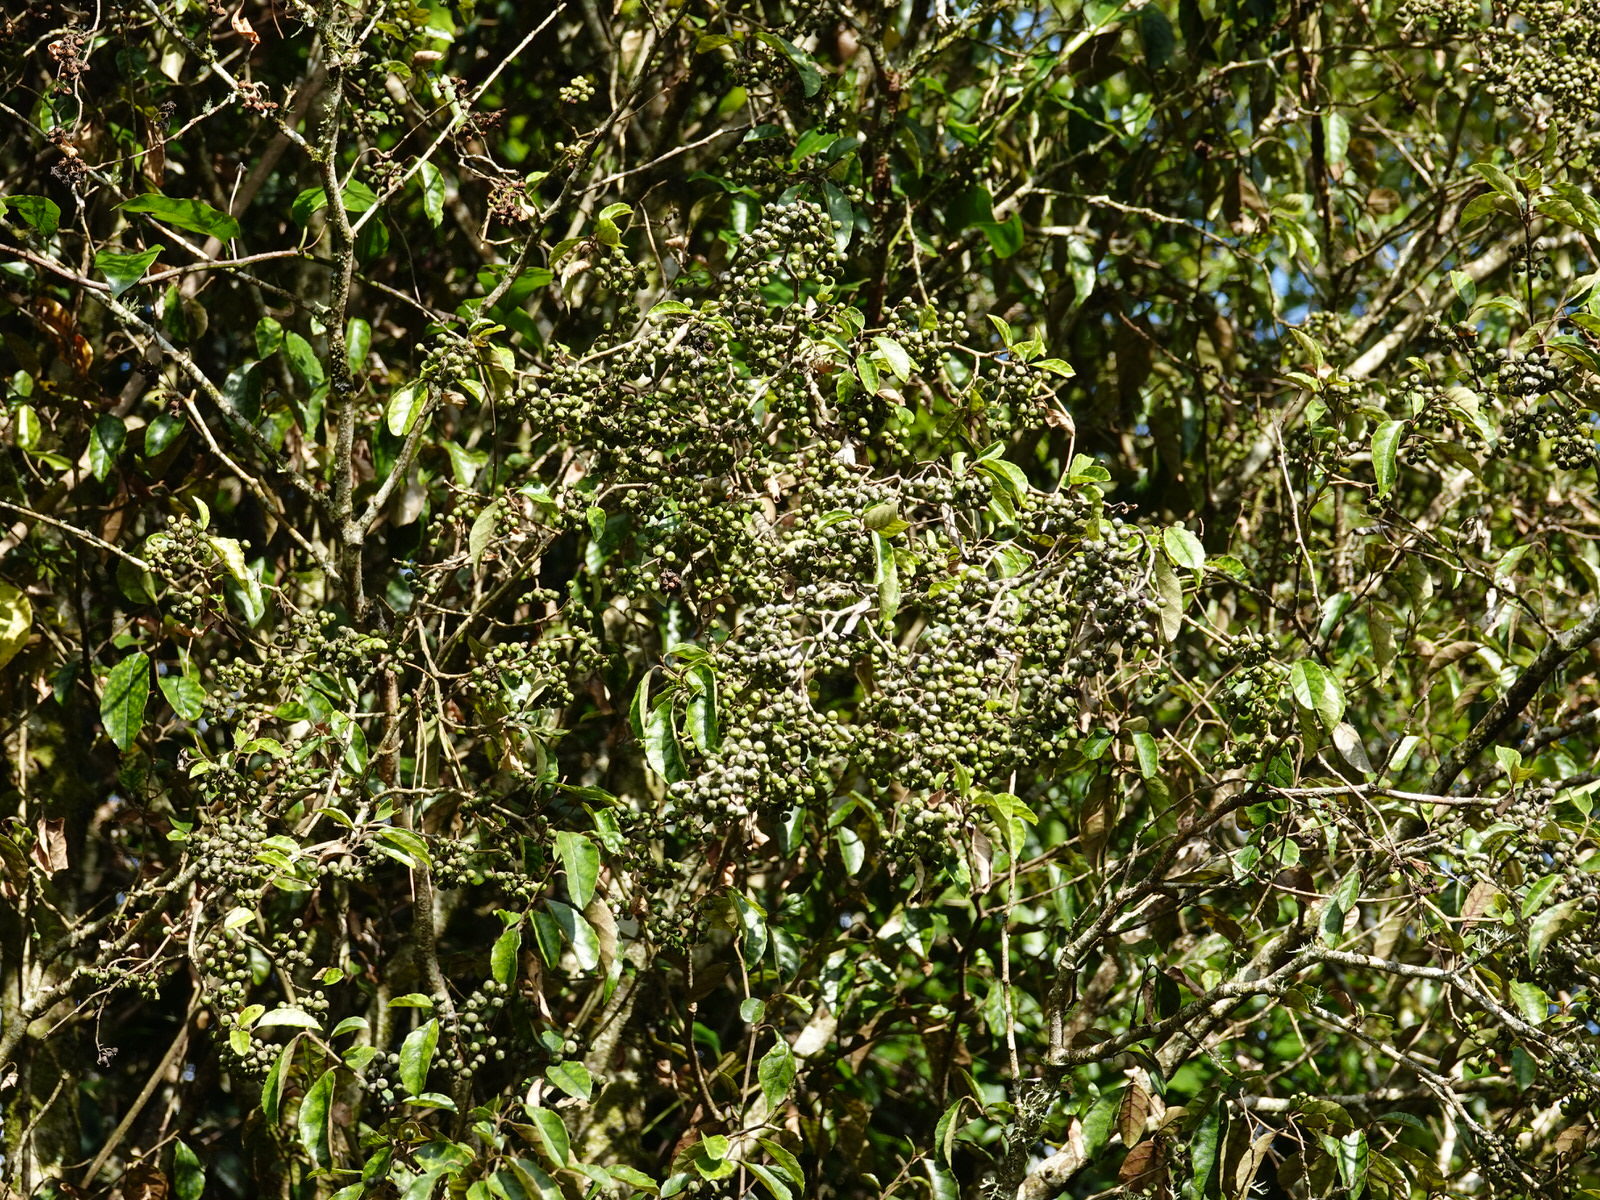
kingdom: Plantae
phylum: Tracheophyta
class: Magnoliopsida
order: Asterales
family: Rousseaceae
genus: Carpodetus
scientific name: Carpodetus serratus
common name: White mapau
